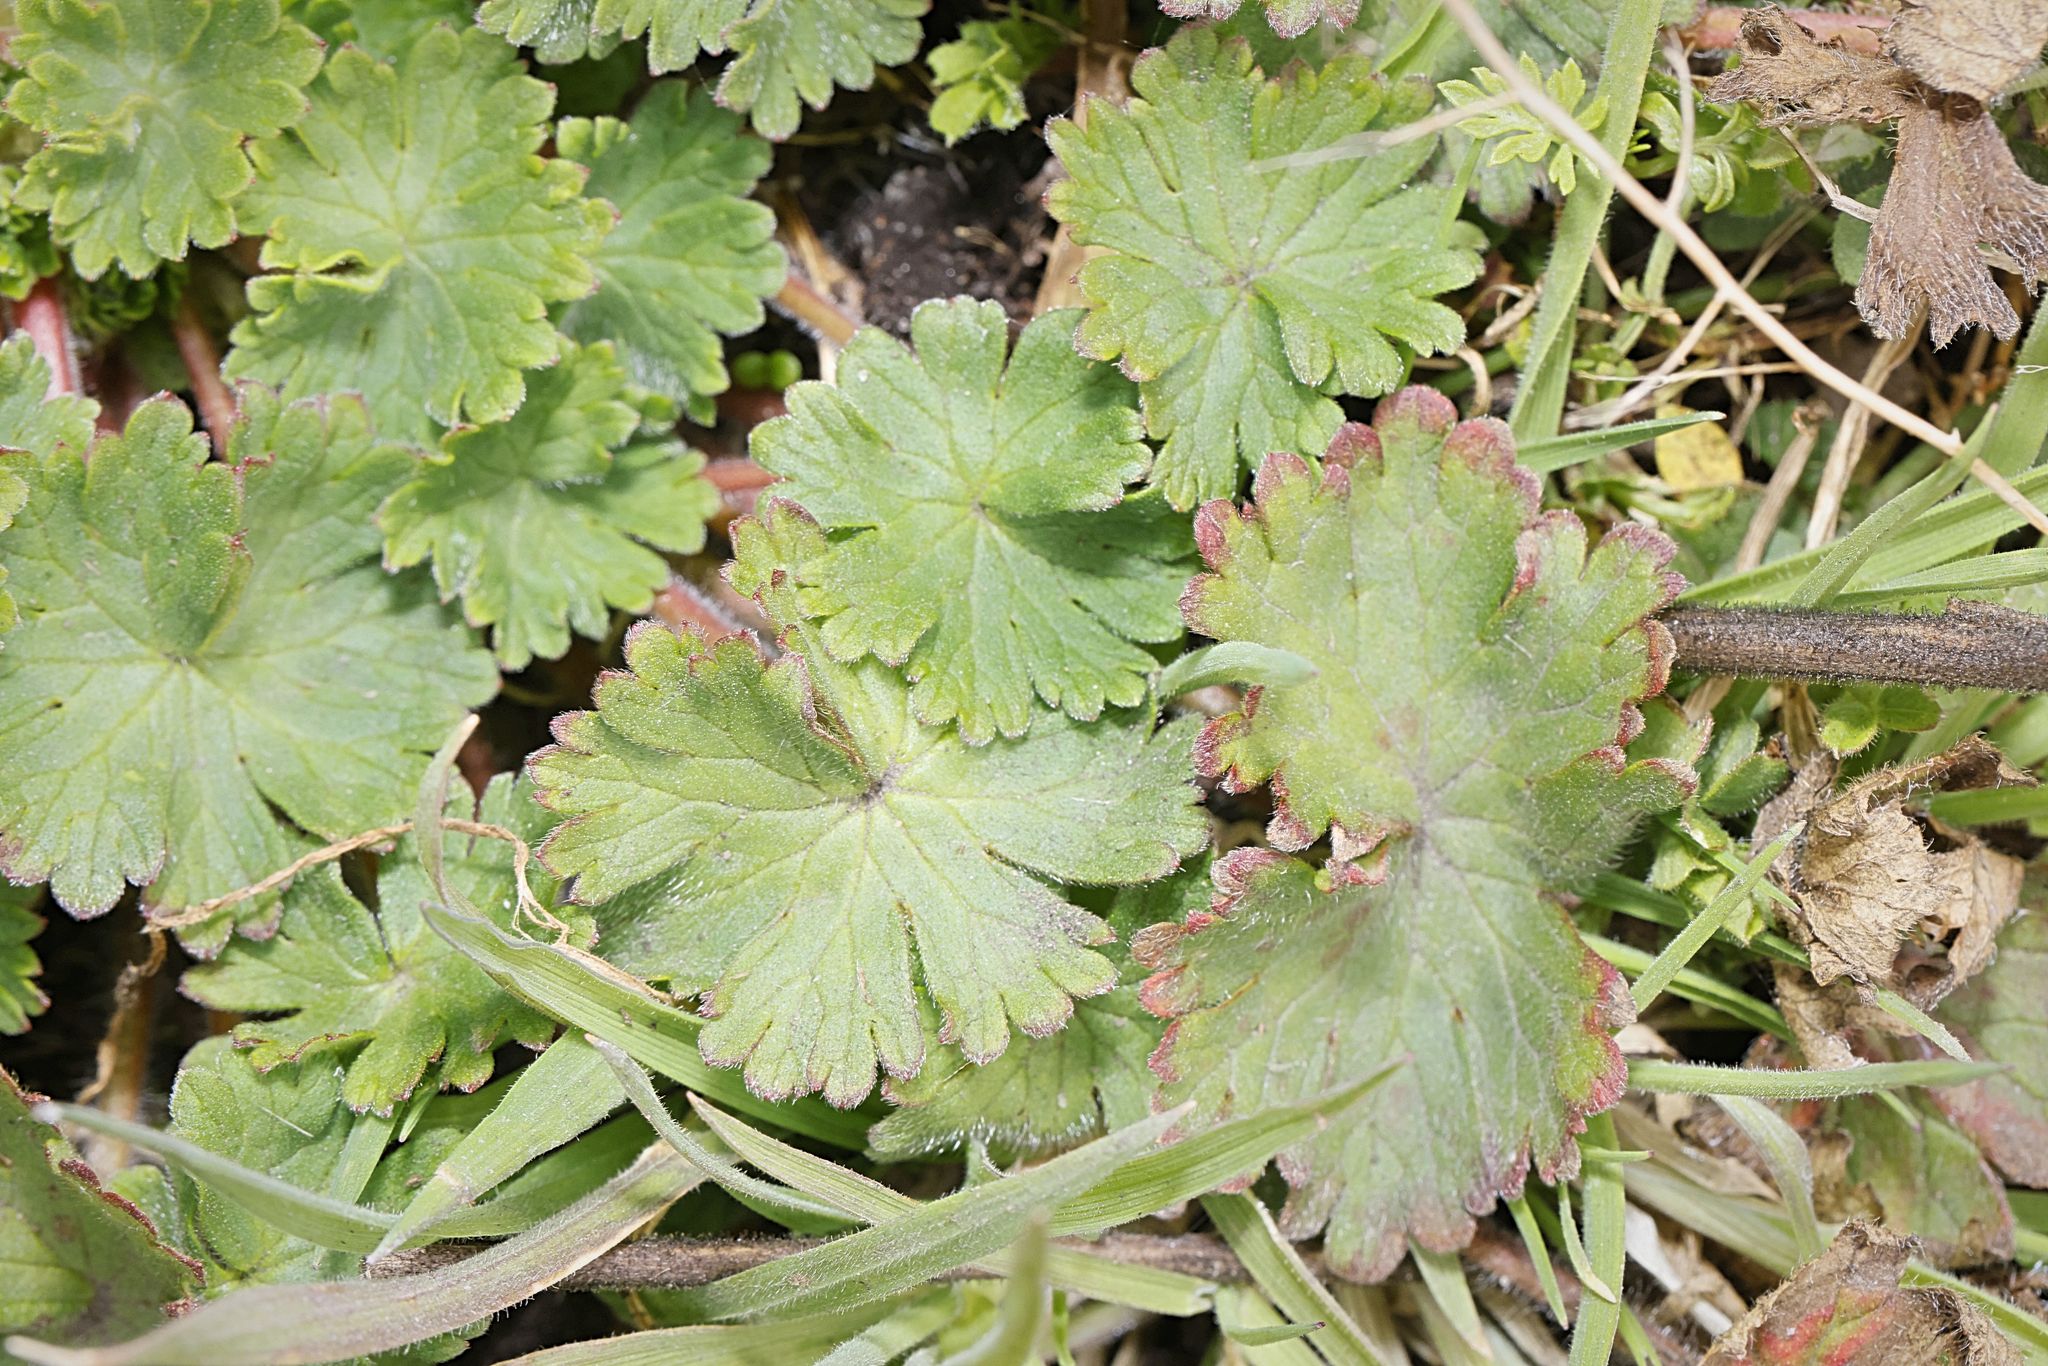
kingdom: Plantae
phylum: Tracheophyta
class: Magnoliopsida
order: Geraniales
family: Geraniaceae
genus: Geranium
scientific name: Geranium molle
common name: Dove's-foot crane's-bill
